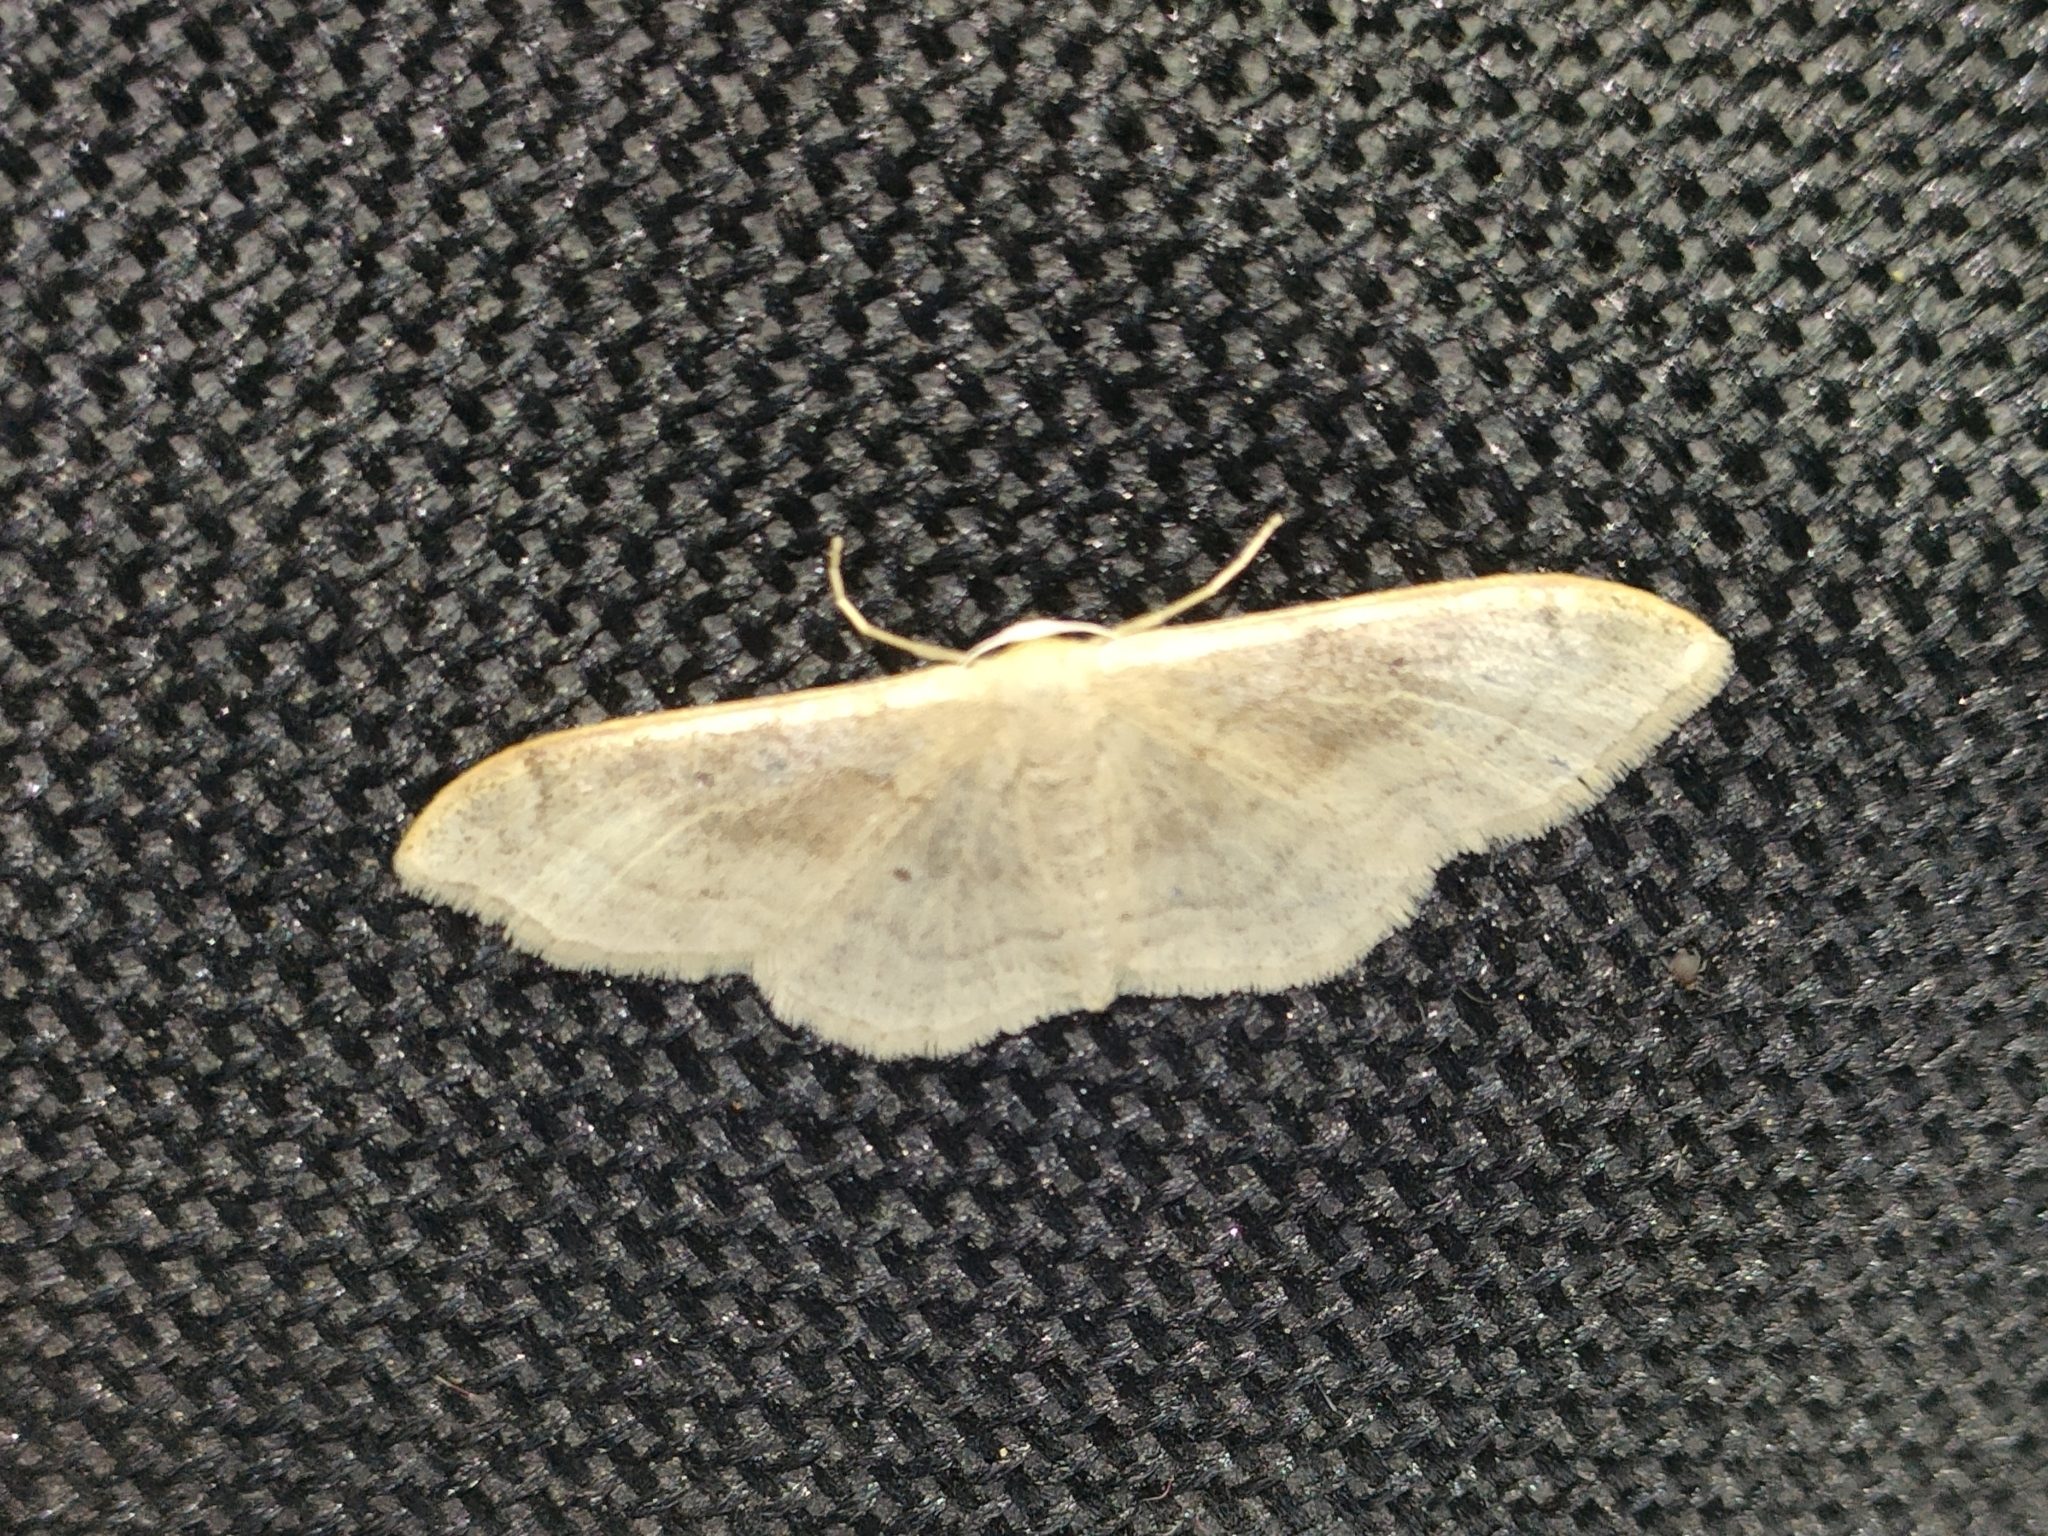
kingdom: Animalia
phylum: Arthropoda
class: Insecta
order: Lepidoptera
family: Geometridae
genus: Idaea
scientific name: Idaea degeneraria
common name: Portland ribbon wave
